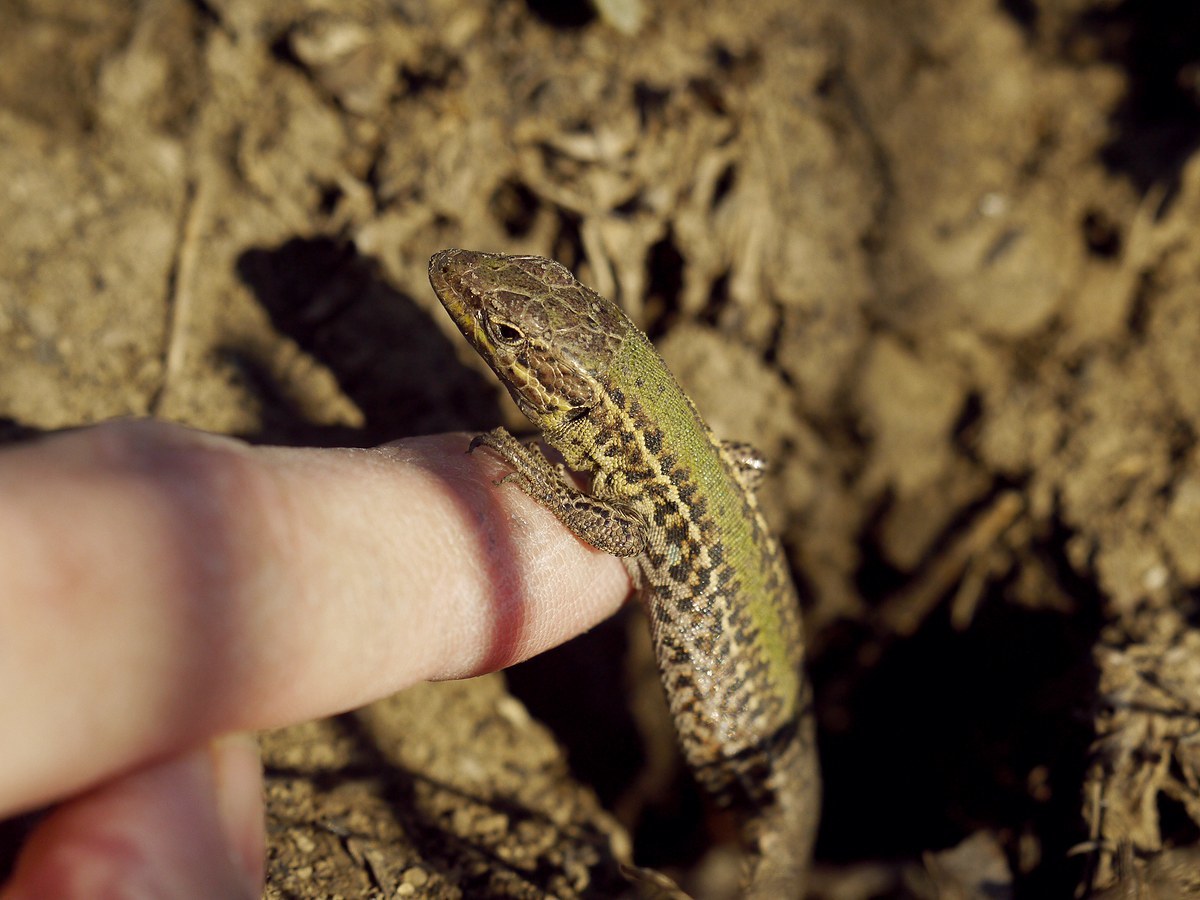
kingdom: Animalia
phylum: Chordata
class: Squamata
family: Lacertidae
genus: Podarcis
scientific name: Podarcis tauricus
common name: Balkan wall lizard
